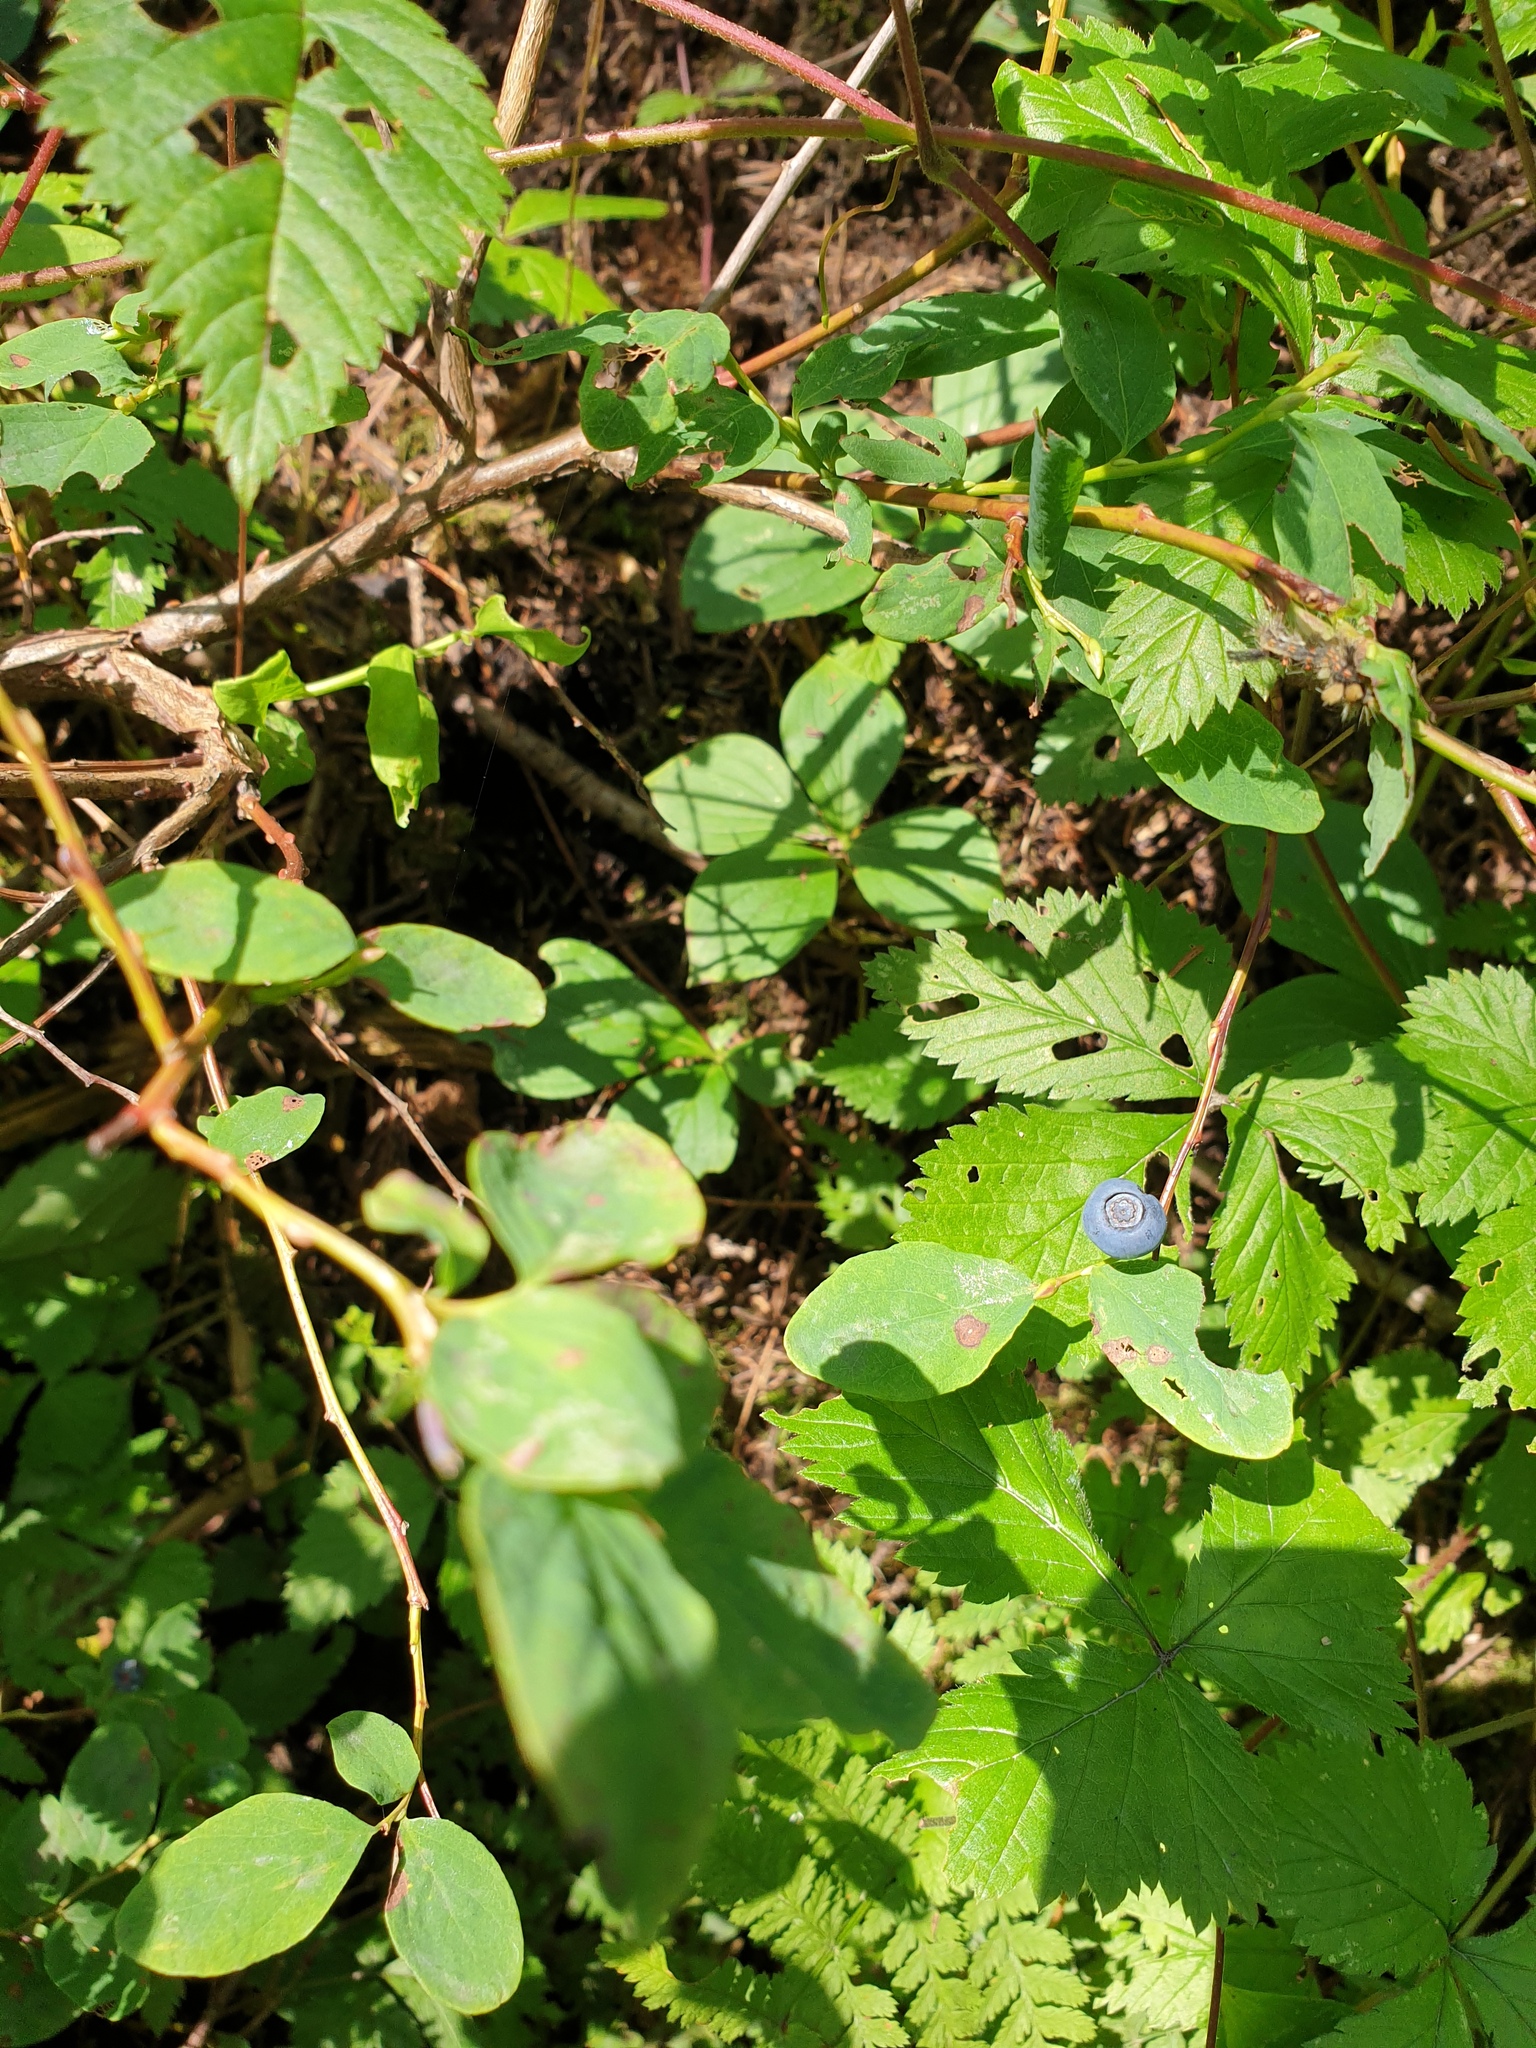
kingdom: Plantae
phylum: Tracheophyta
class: Magnoliopsida
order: Ericales
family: Ericaceae
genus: Vaccinium
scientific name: Vaccinium ovalifolium
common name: Early blueberry
